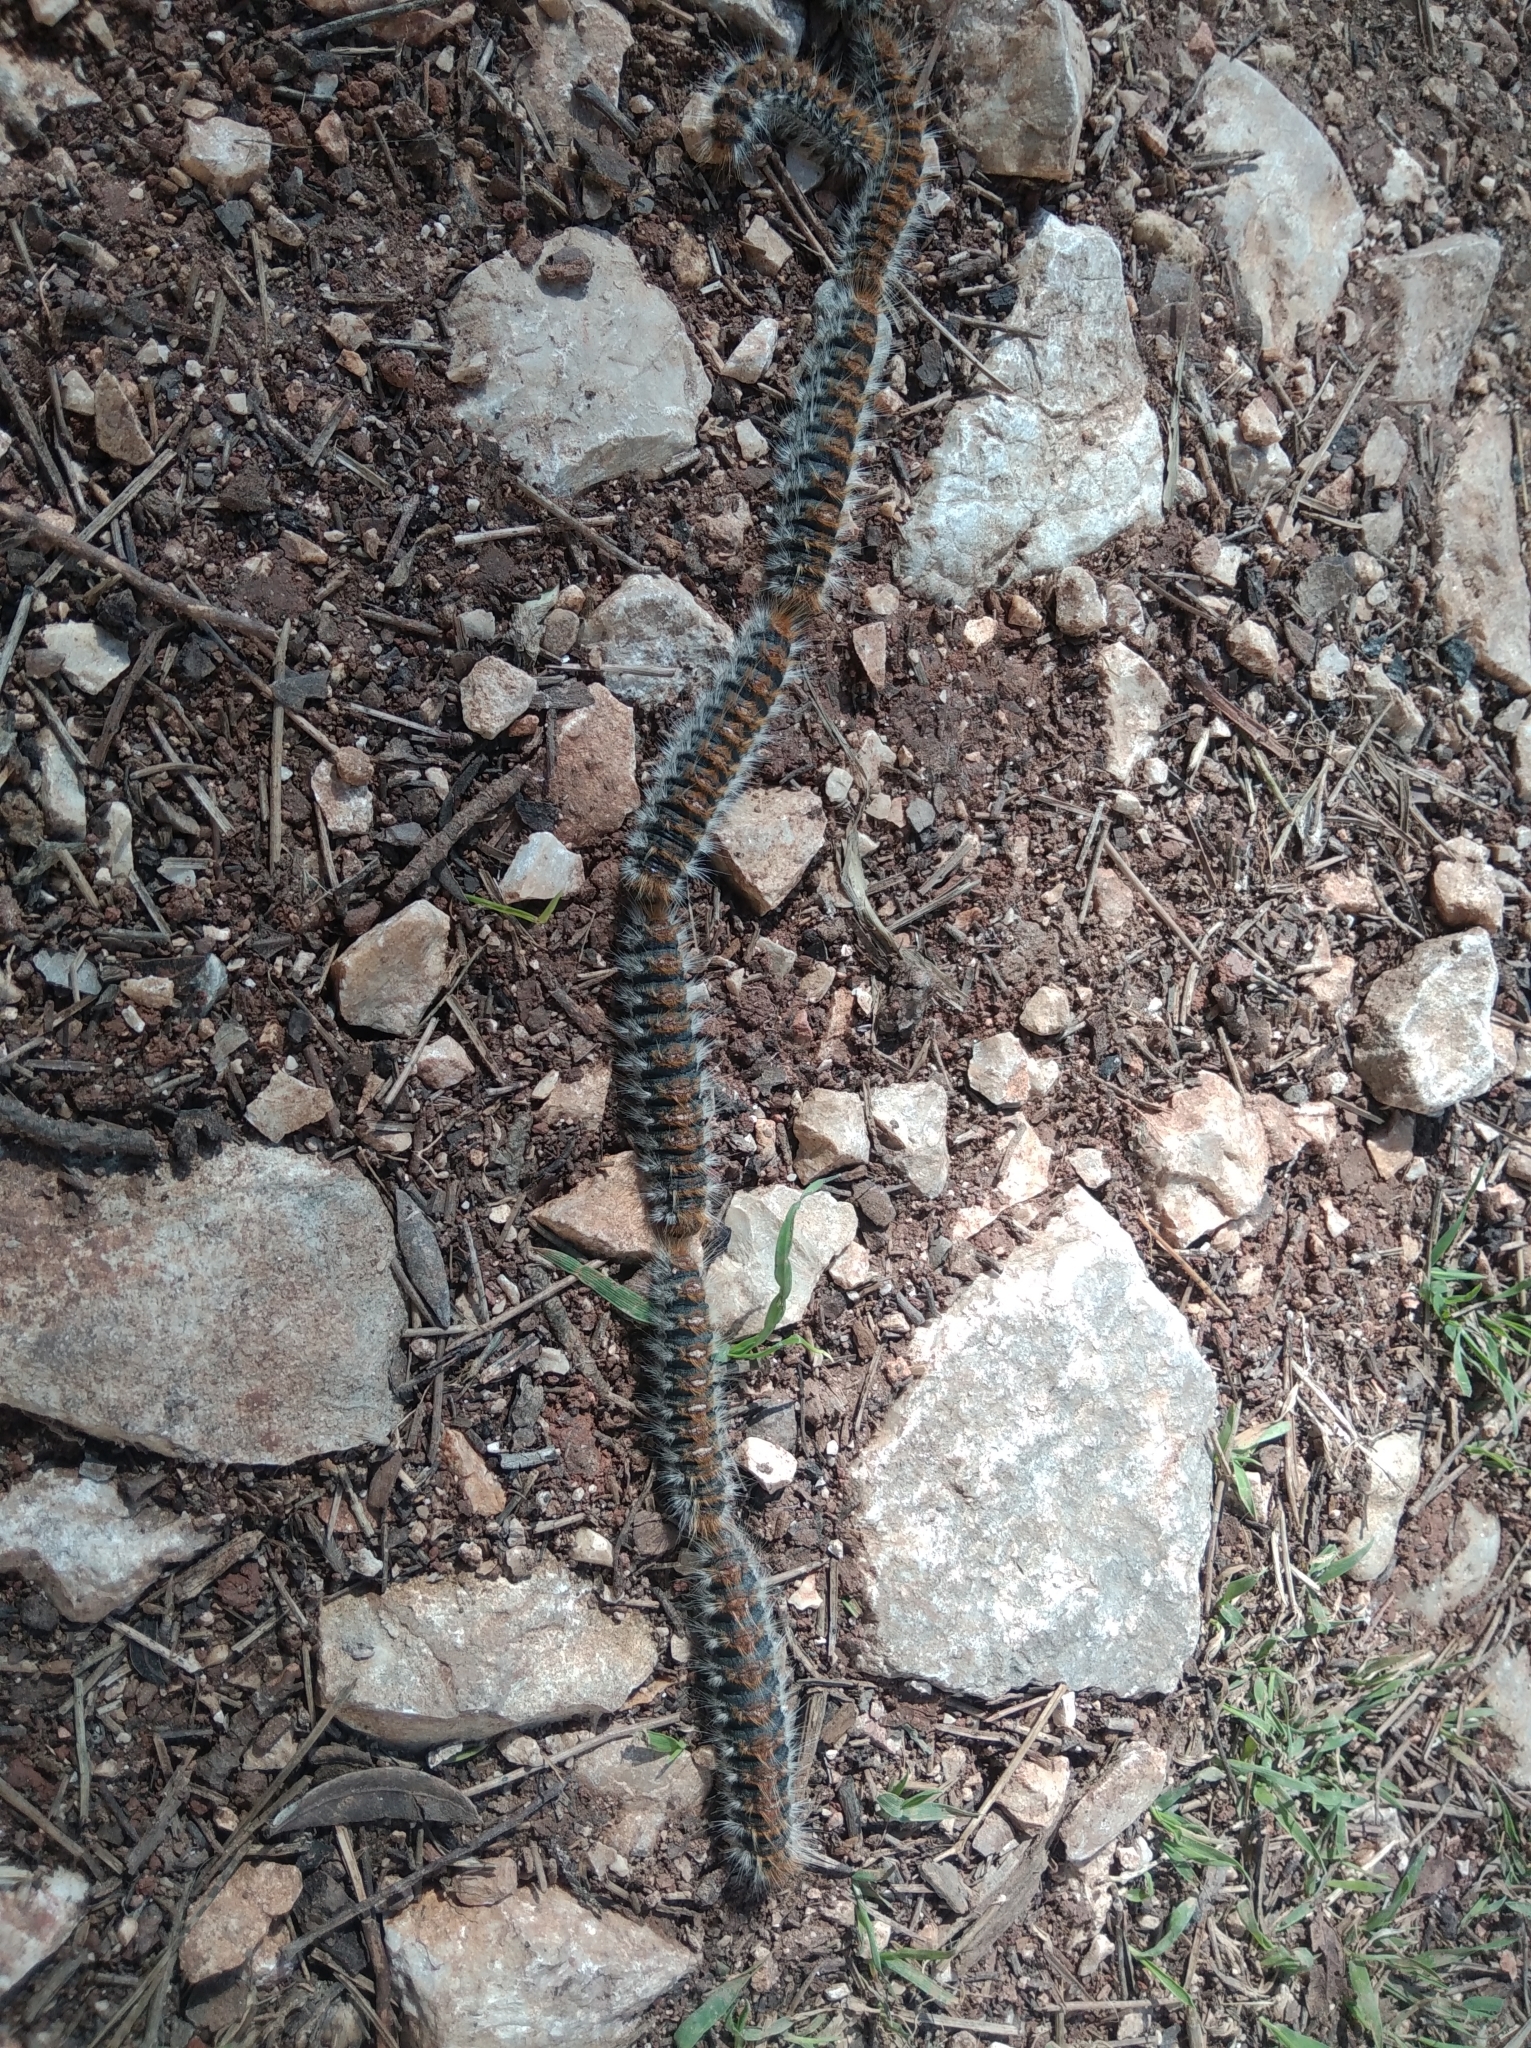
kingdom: Animalia
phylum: Arthropoda
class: Insecta
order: Lepidoptera
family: Notodontidae
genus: Thaumetopoea
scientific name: Thaumetopoea pityocampa
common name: Pine processionary
